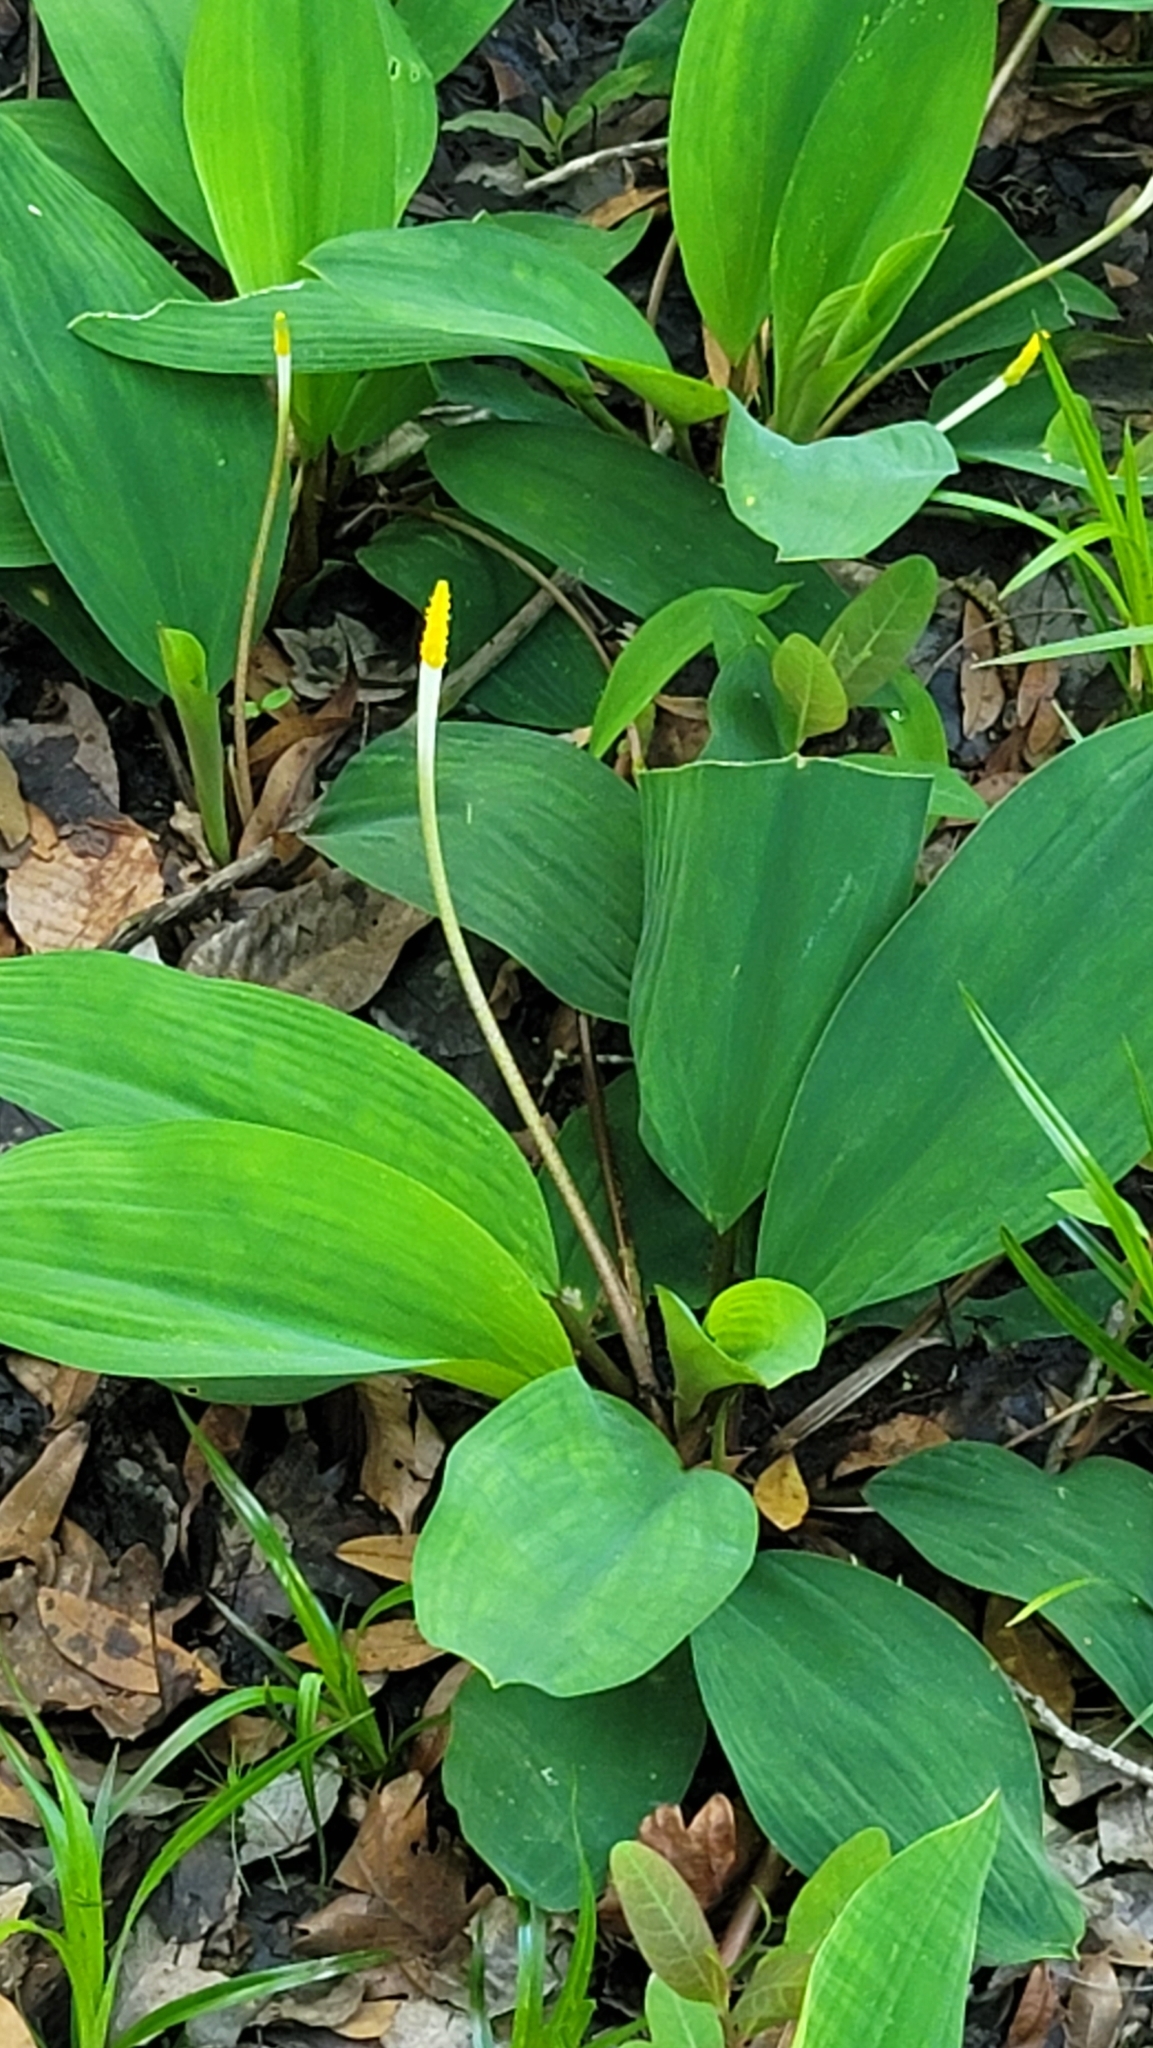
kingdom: Plantae
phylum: Tracheophyta
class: Liliopsida
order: Alismatales
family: Araceae
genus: Orontium
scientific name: Orontium aquaticum
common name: Golden-club
